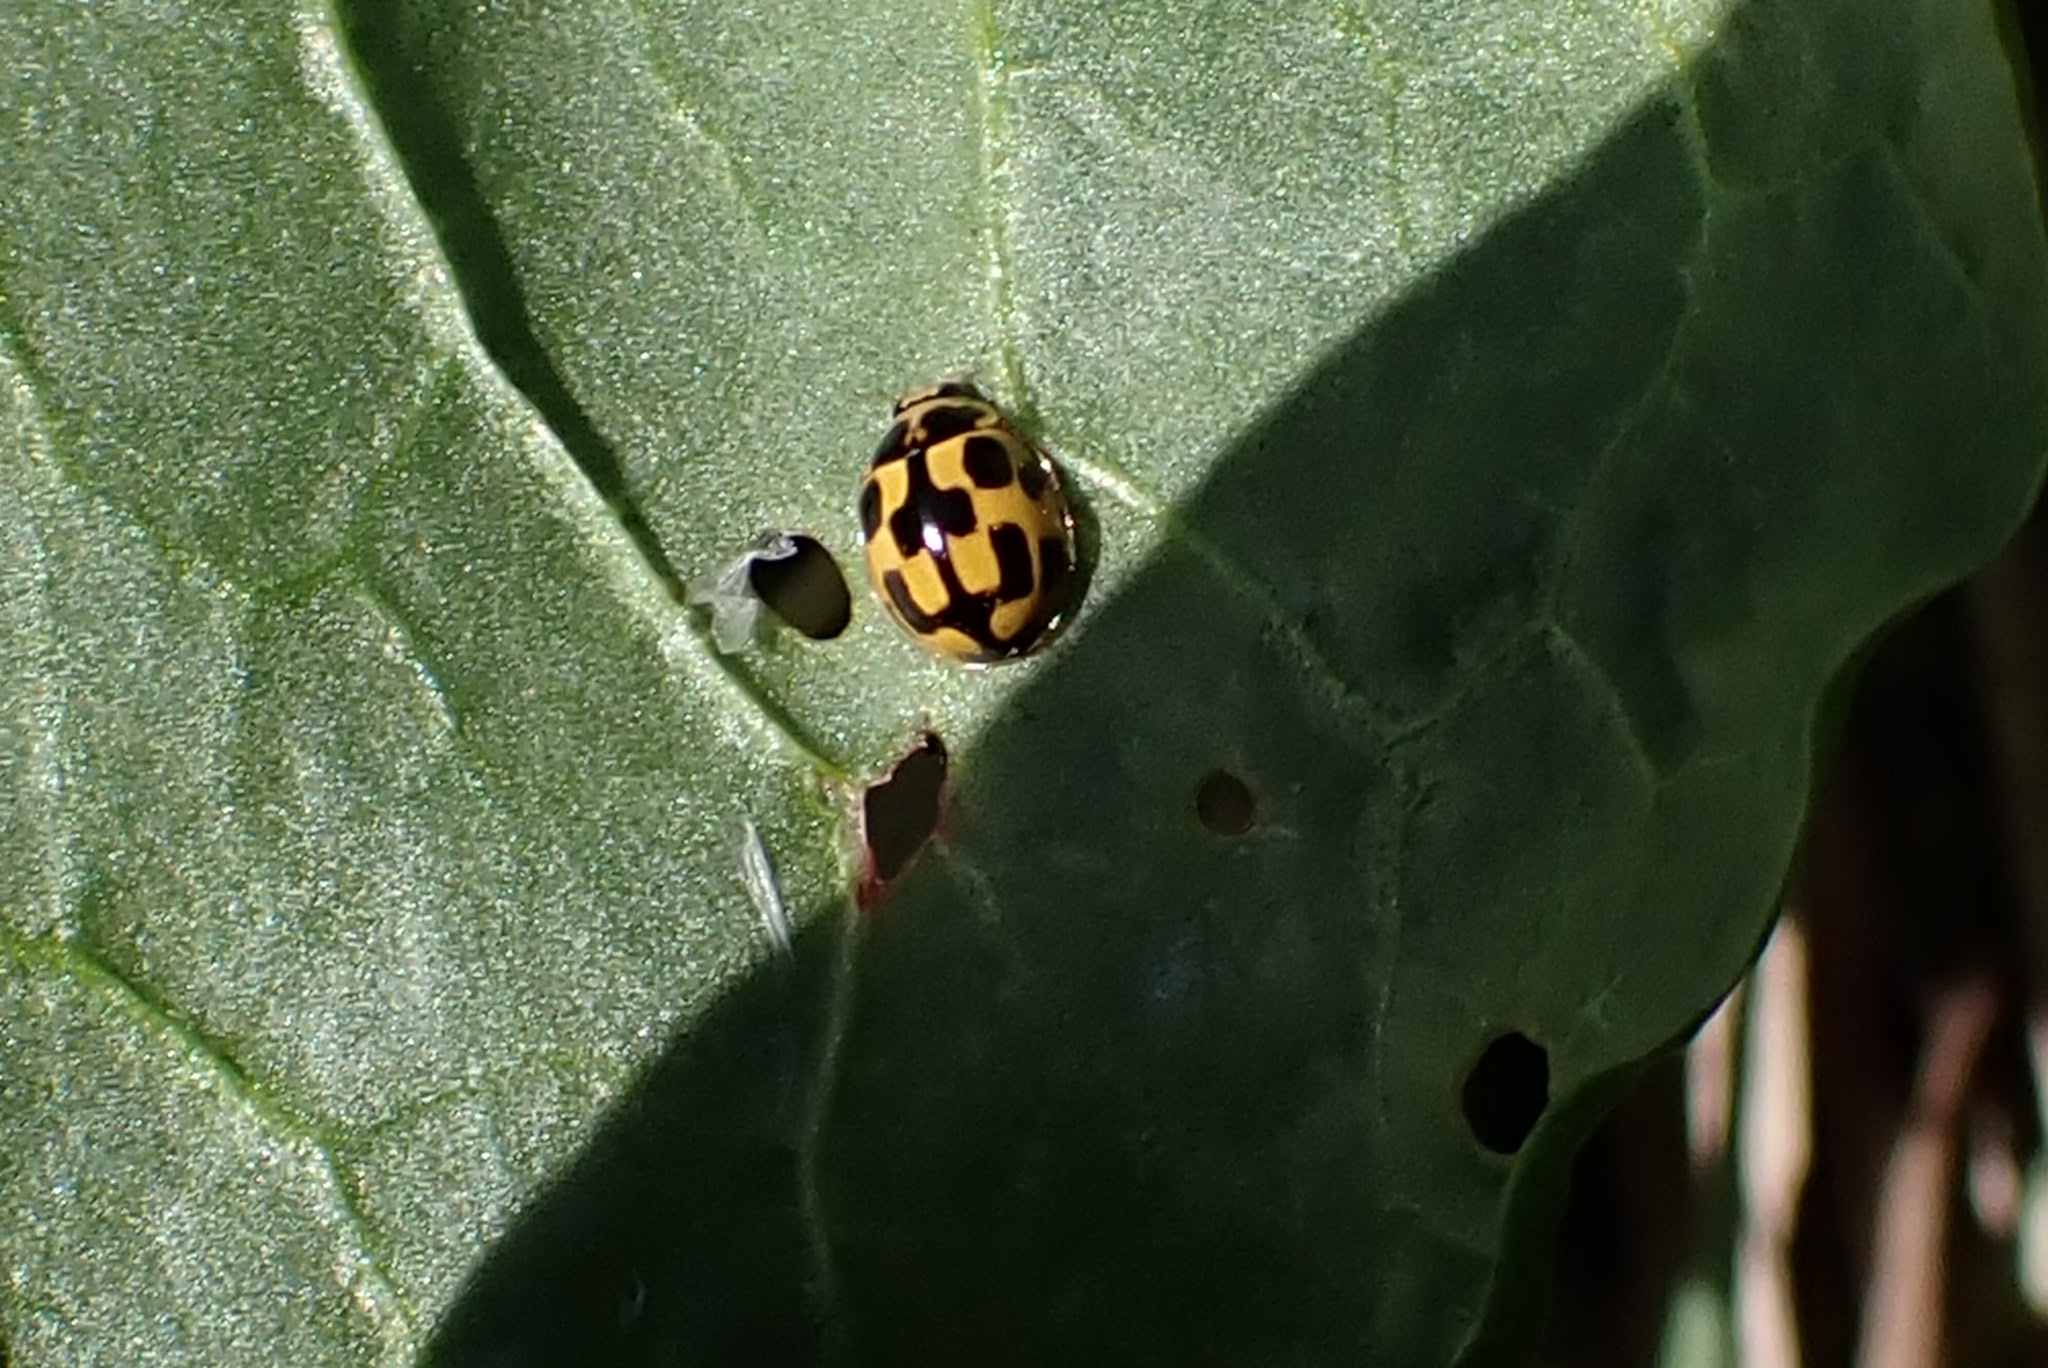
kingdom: Animalia
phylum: Arthropoda
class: Insecta
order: Coleoptera
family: Coccinellidae
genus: Propylaea
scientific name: Propylaea quatuordecimpunctata
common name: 14-spotted ladybird beetle
